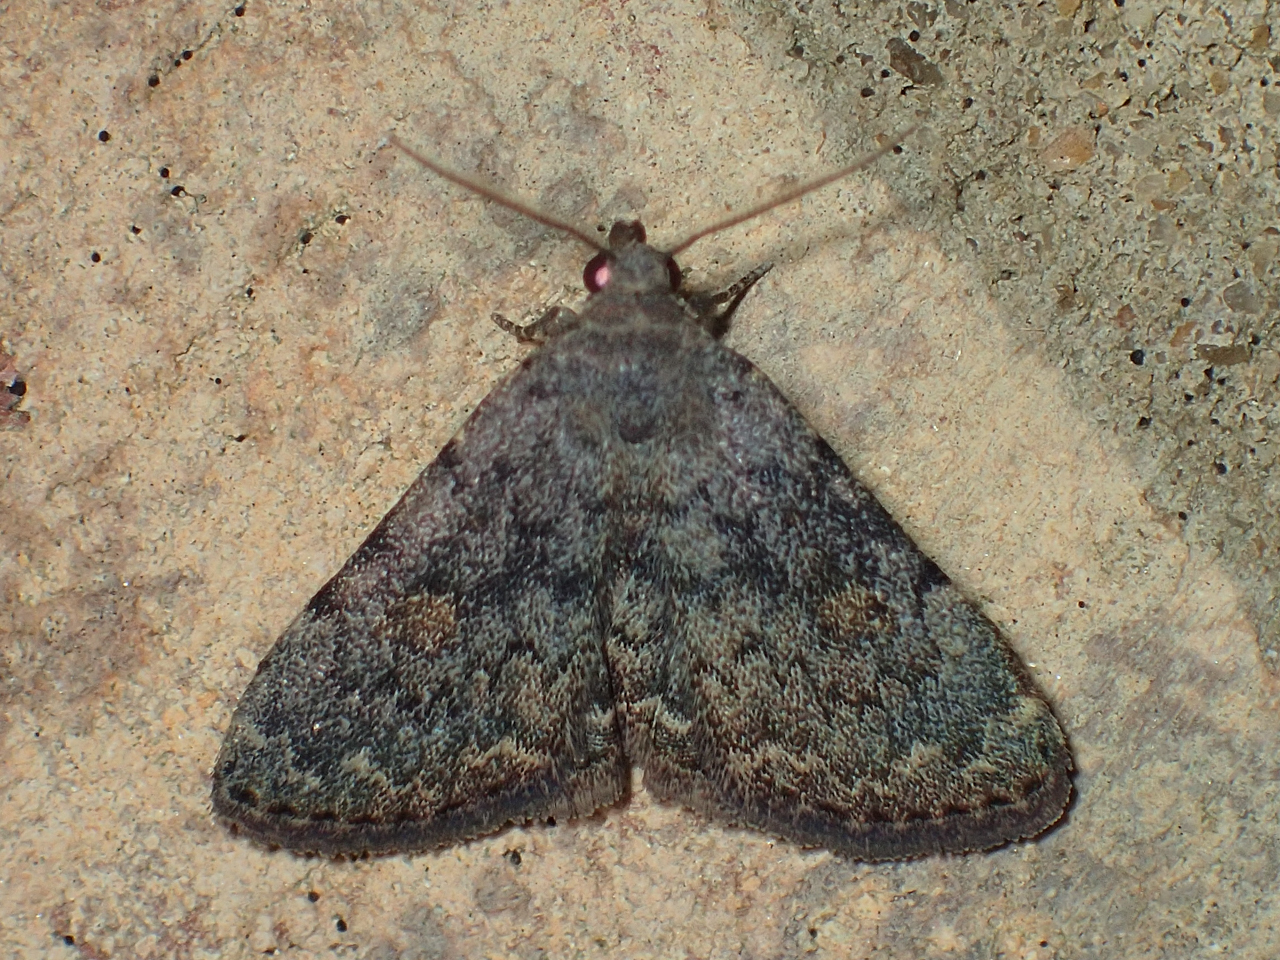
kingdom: Animalia
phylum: Arthropoda
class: Insecta
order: Lepidoptera
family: Erebidae
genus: Idia
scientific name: Idia aemula
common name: Common idia moth
